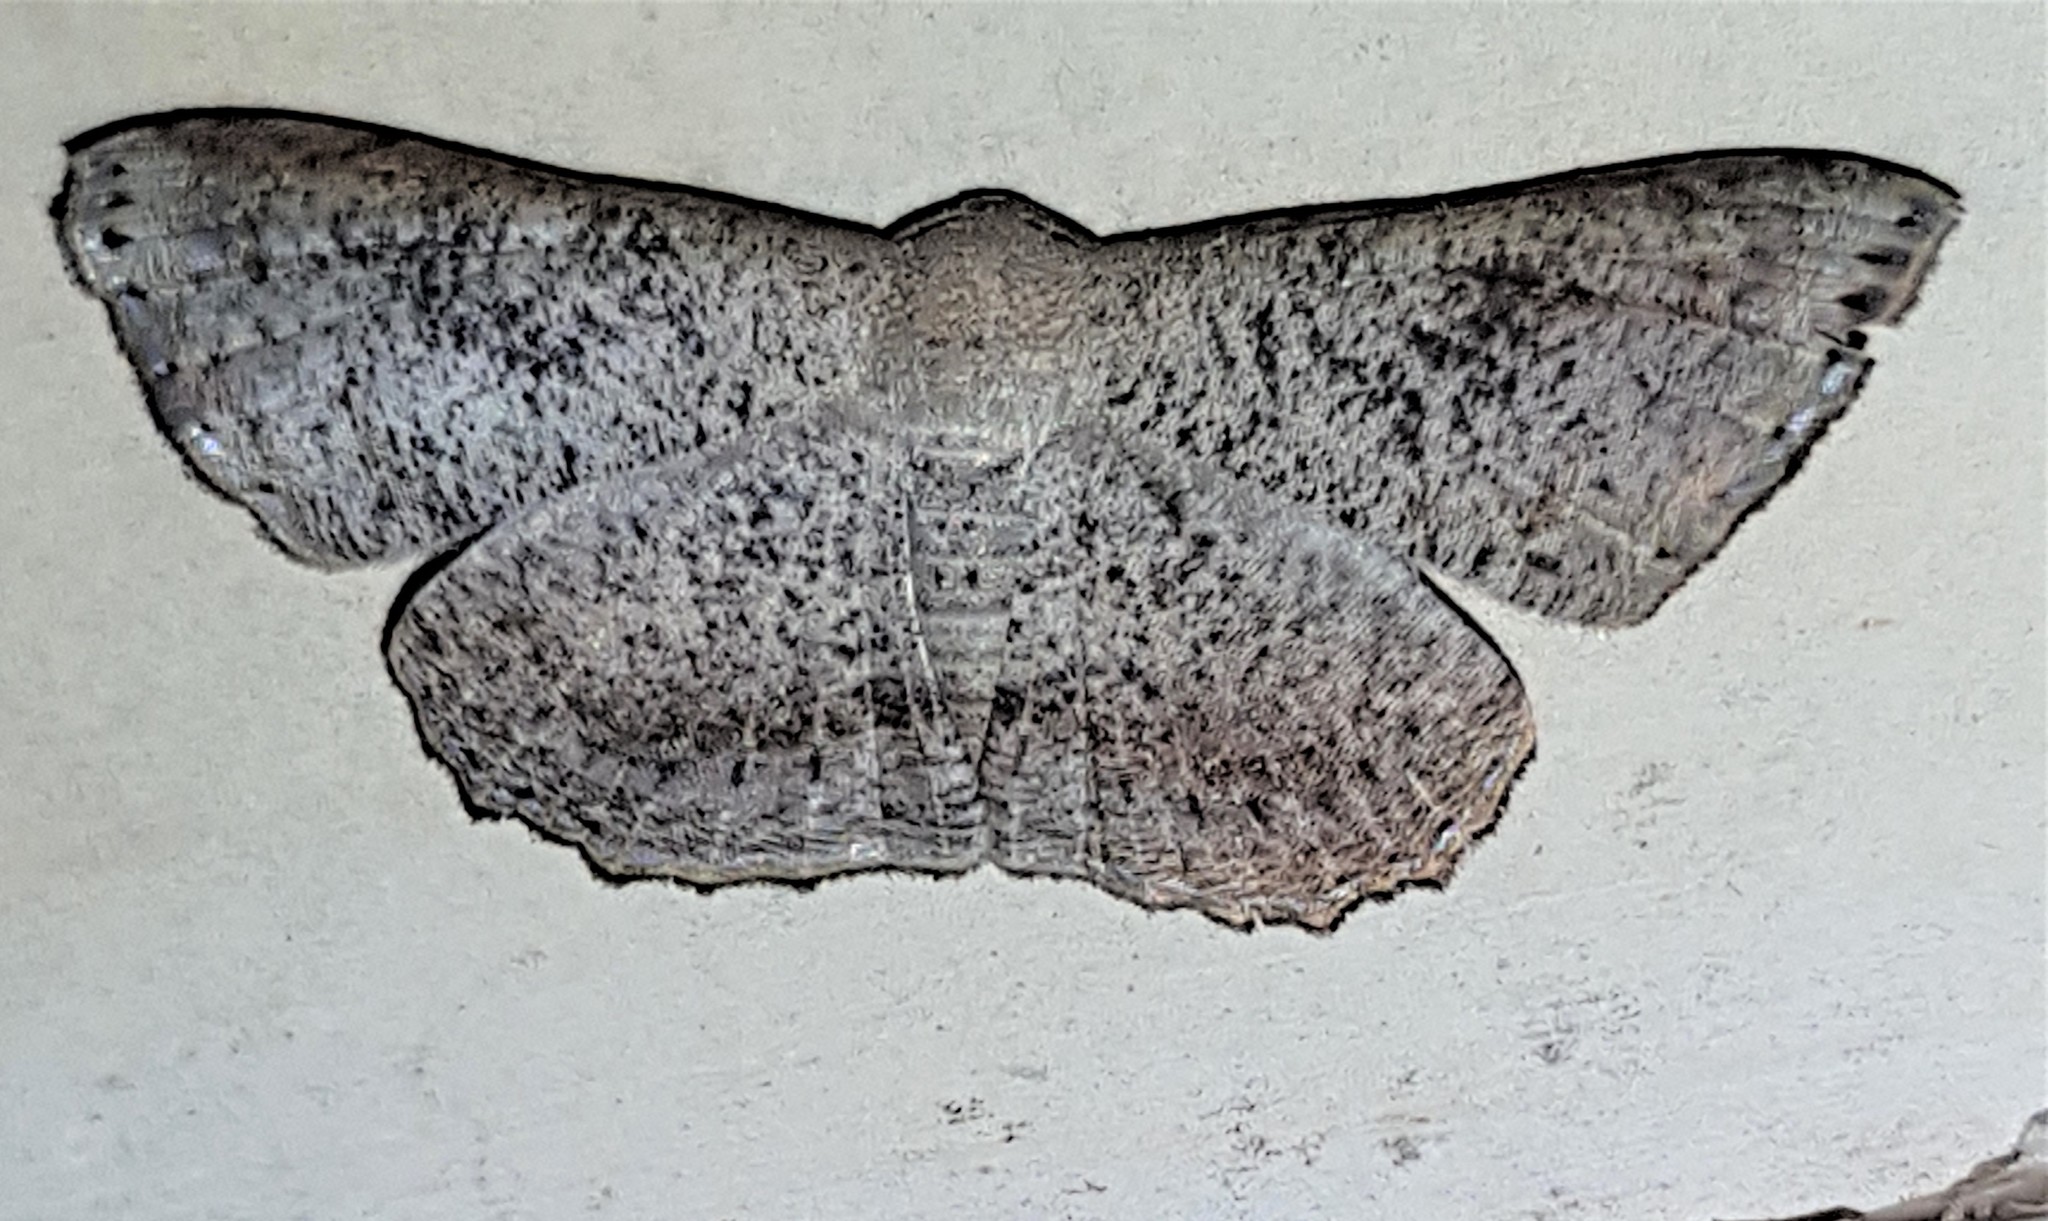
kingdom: Animalia
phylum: Arthropoda
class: Insecta
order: Lepidoptera
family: Uraniidae
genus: Molybdophora
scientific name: Molybdophora concinnaria
